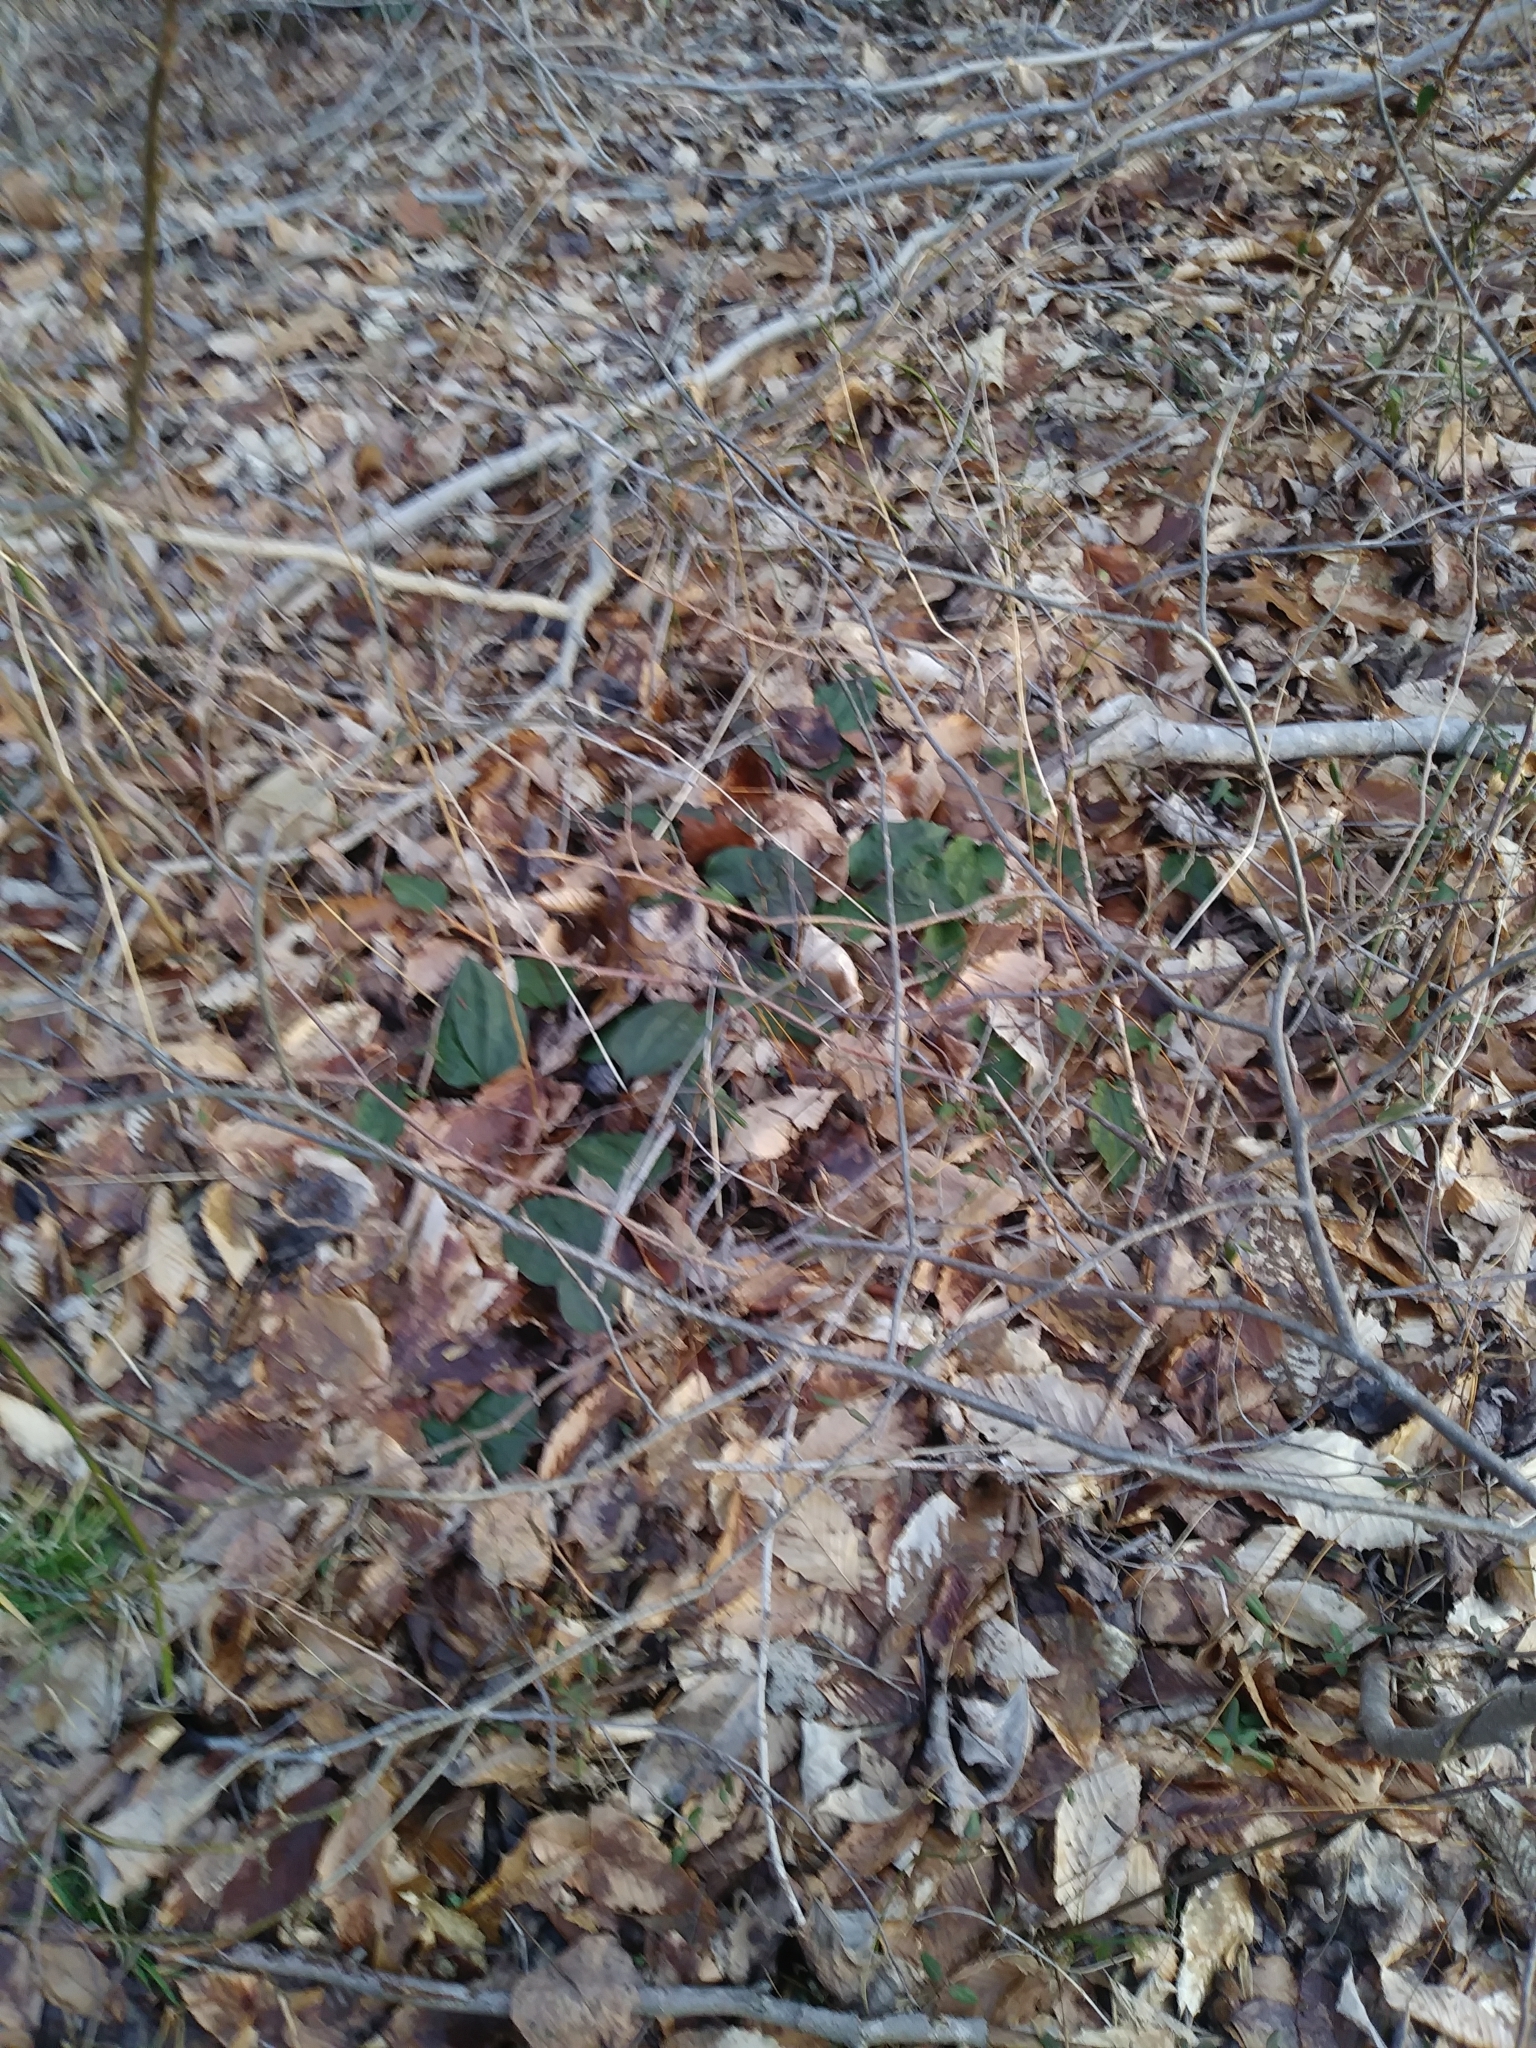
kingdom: Plantae
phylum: Tracheophyta
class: Liliopsida
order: Asparagales
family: Orchidaceae
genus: Tipularia
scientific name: Tipularia discolor
